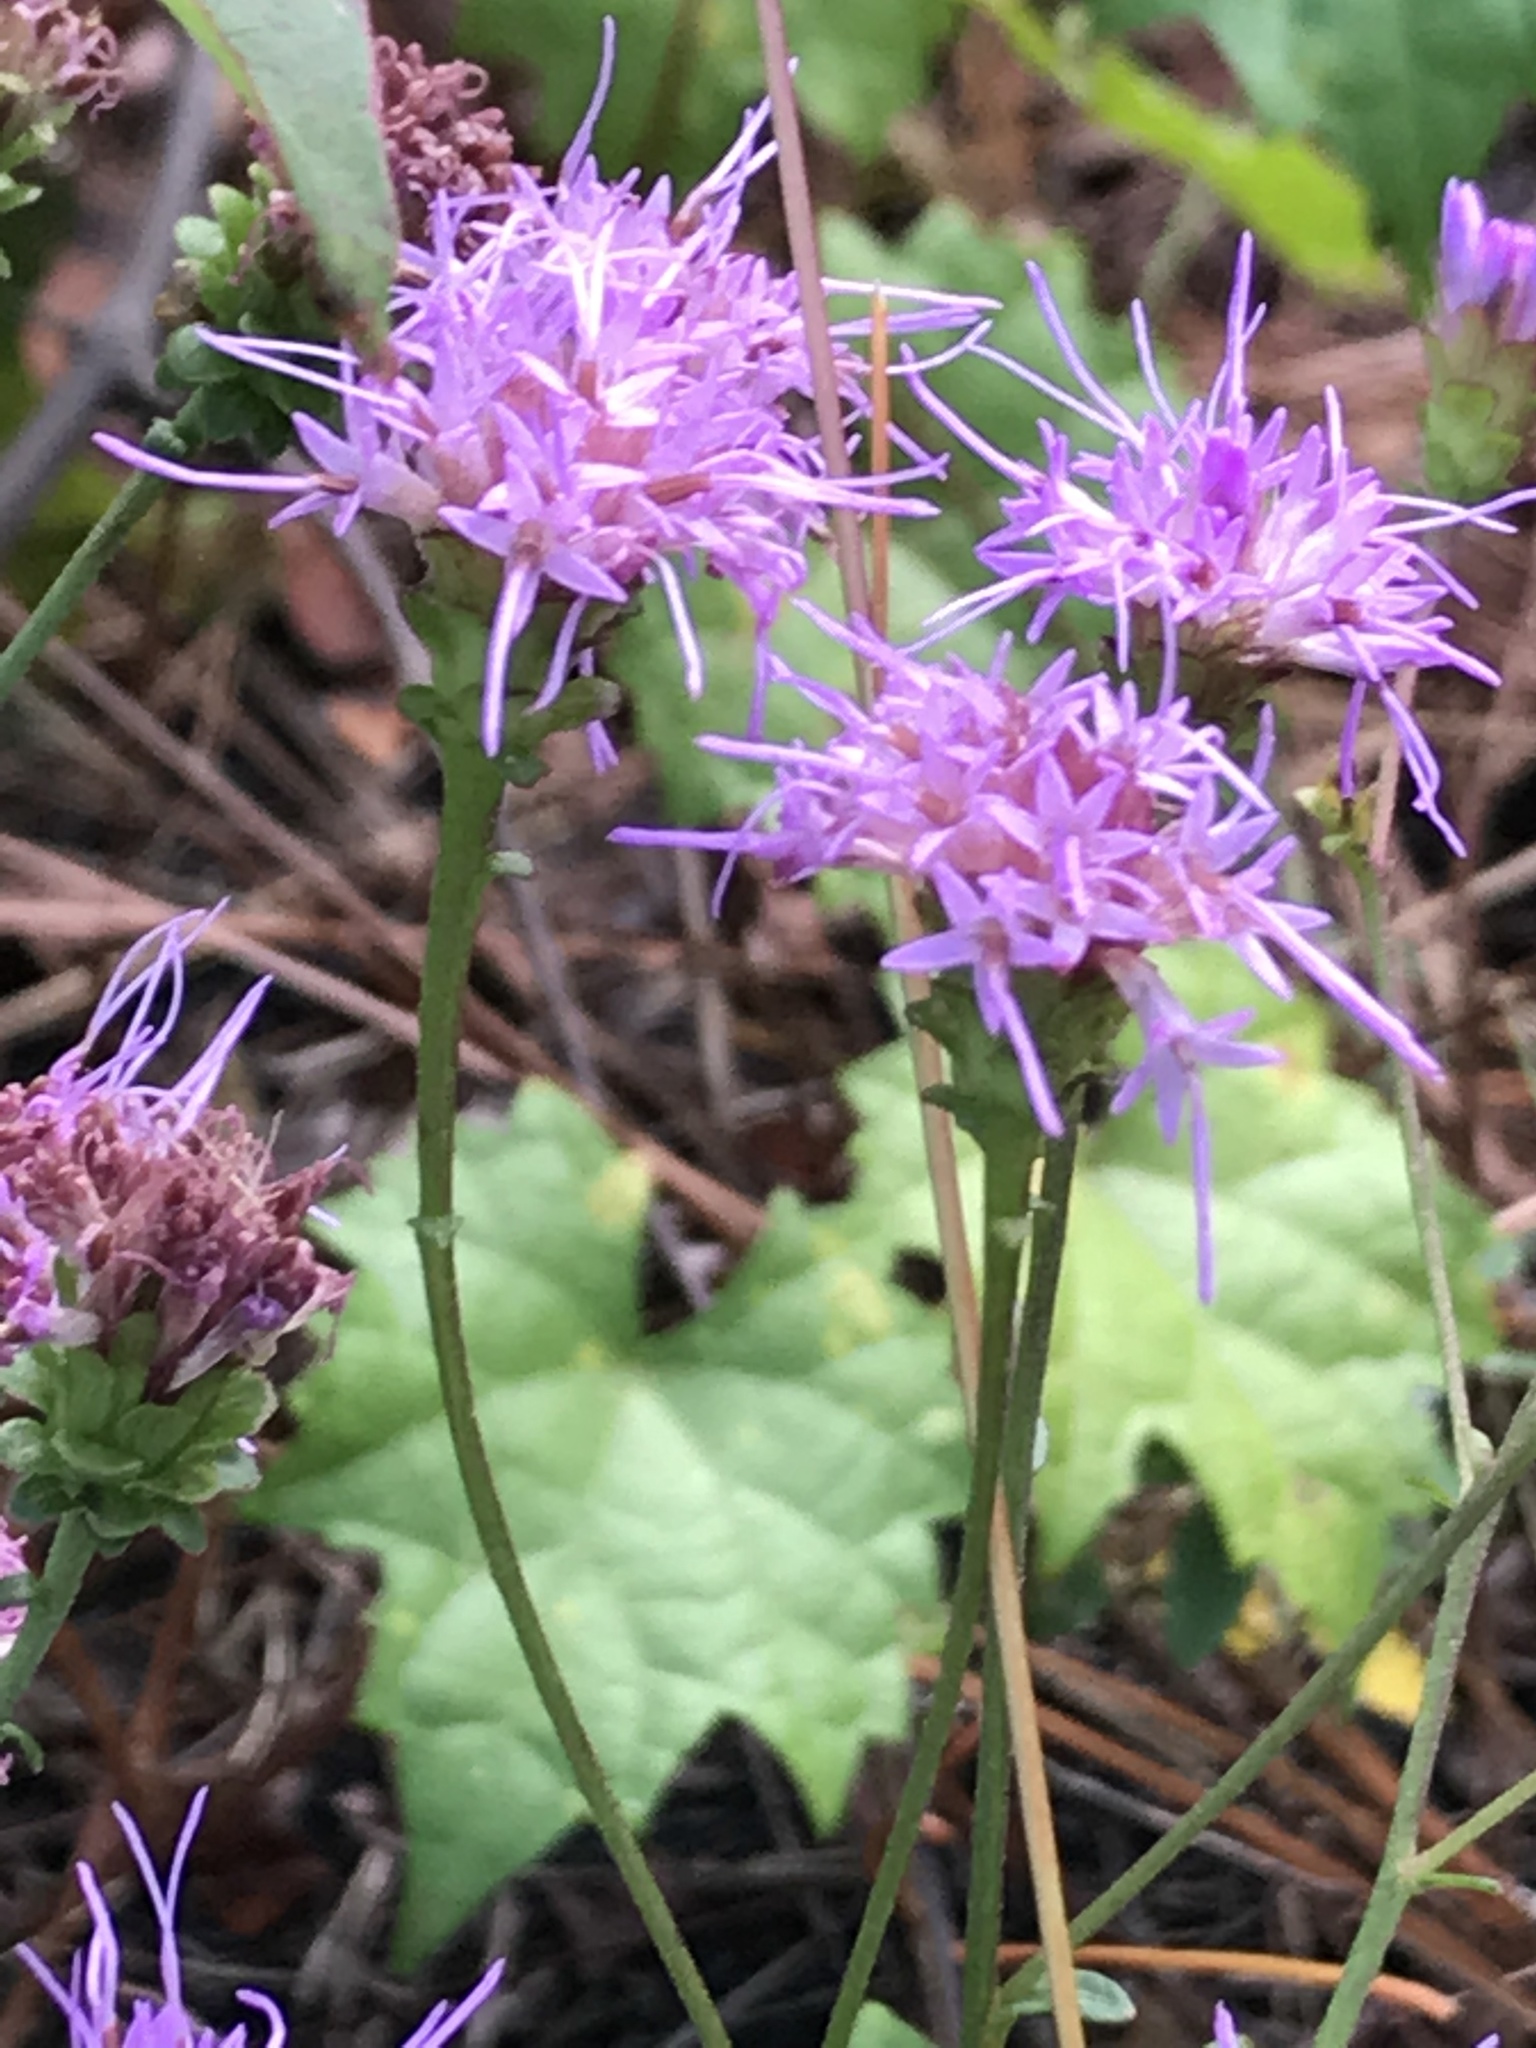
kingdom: Plantae
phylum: Tracheophyta
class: Magnoliopsida
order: Asterales
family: Asteraceae
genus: Carphephorus
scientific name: Carphephorus bellidifolius
